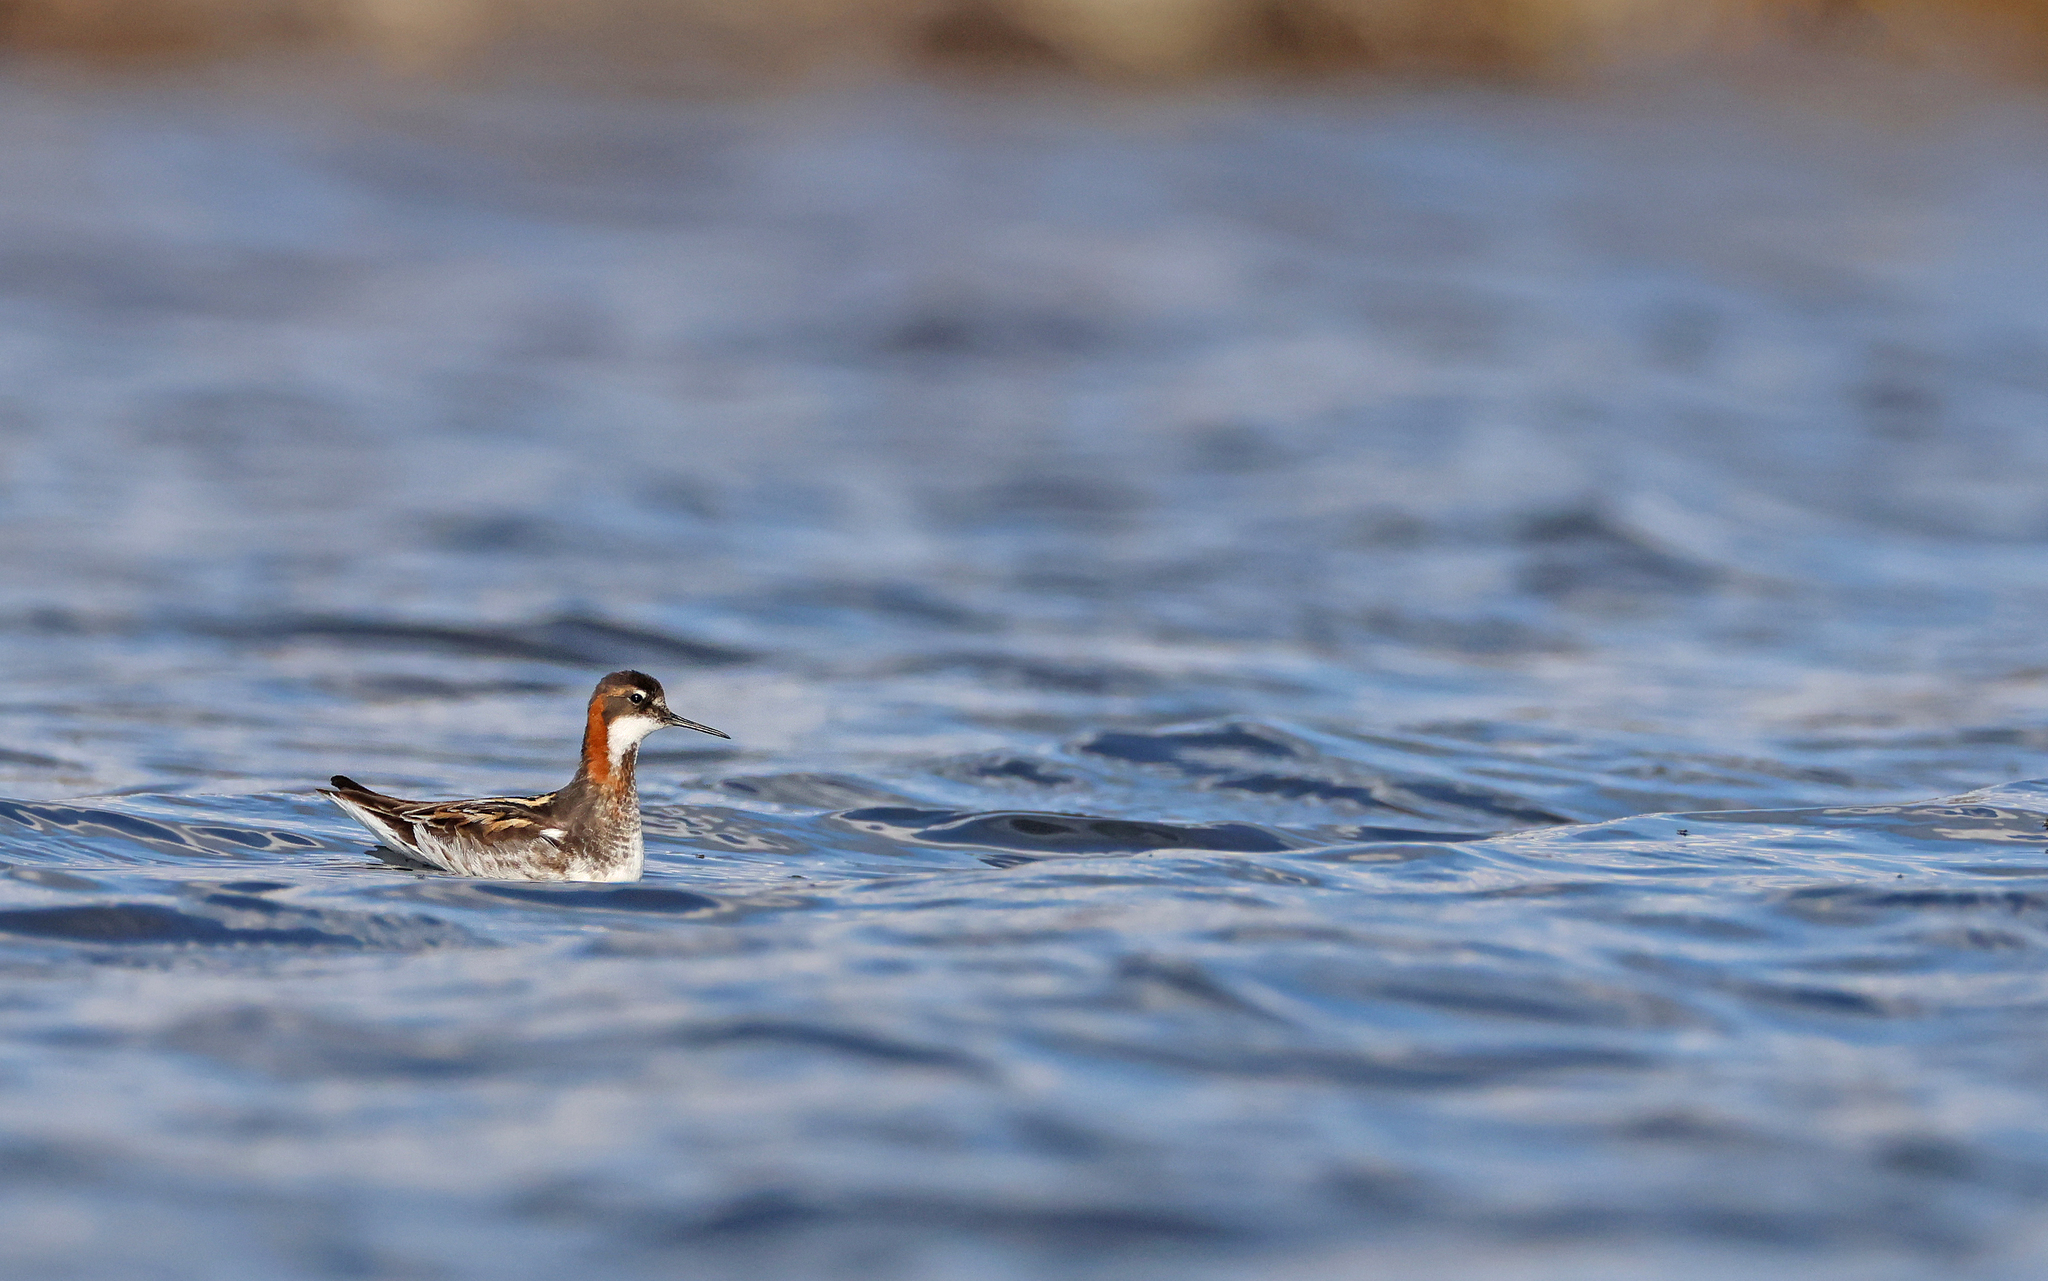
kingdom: Animalia
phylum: Chordata
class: Aves
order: Charadriiformes
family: Scolopacidae
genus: Phalaropus
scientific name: Phalaropus lobatus
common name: Red-necked phalarope
